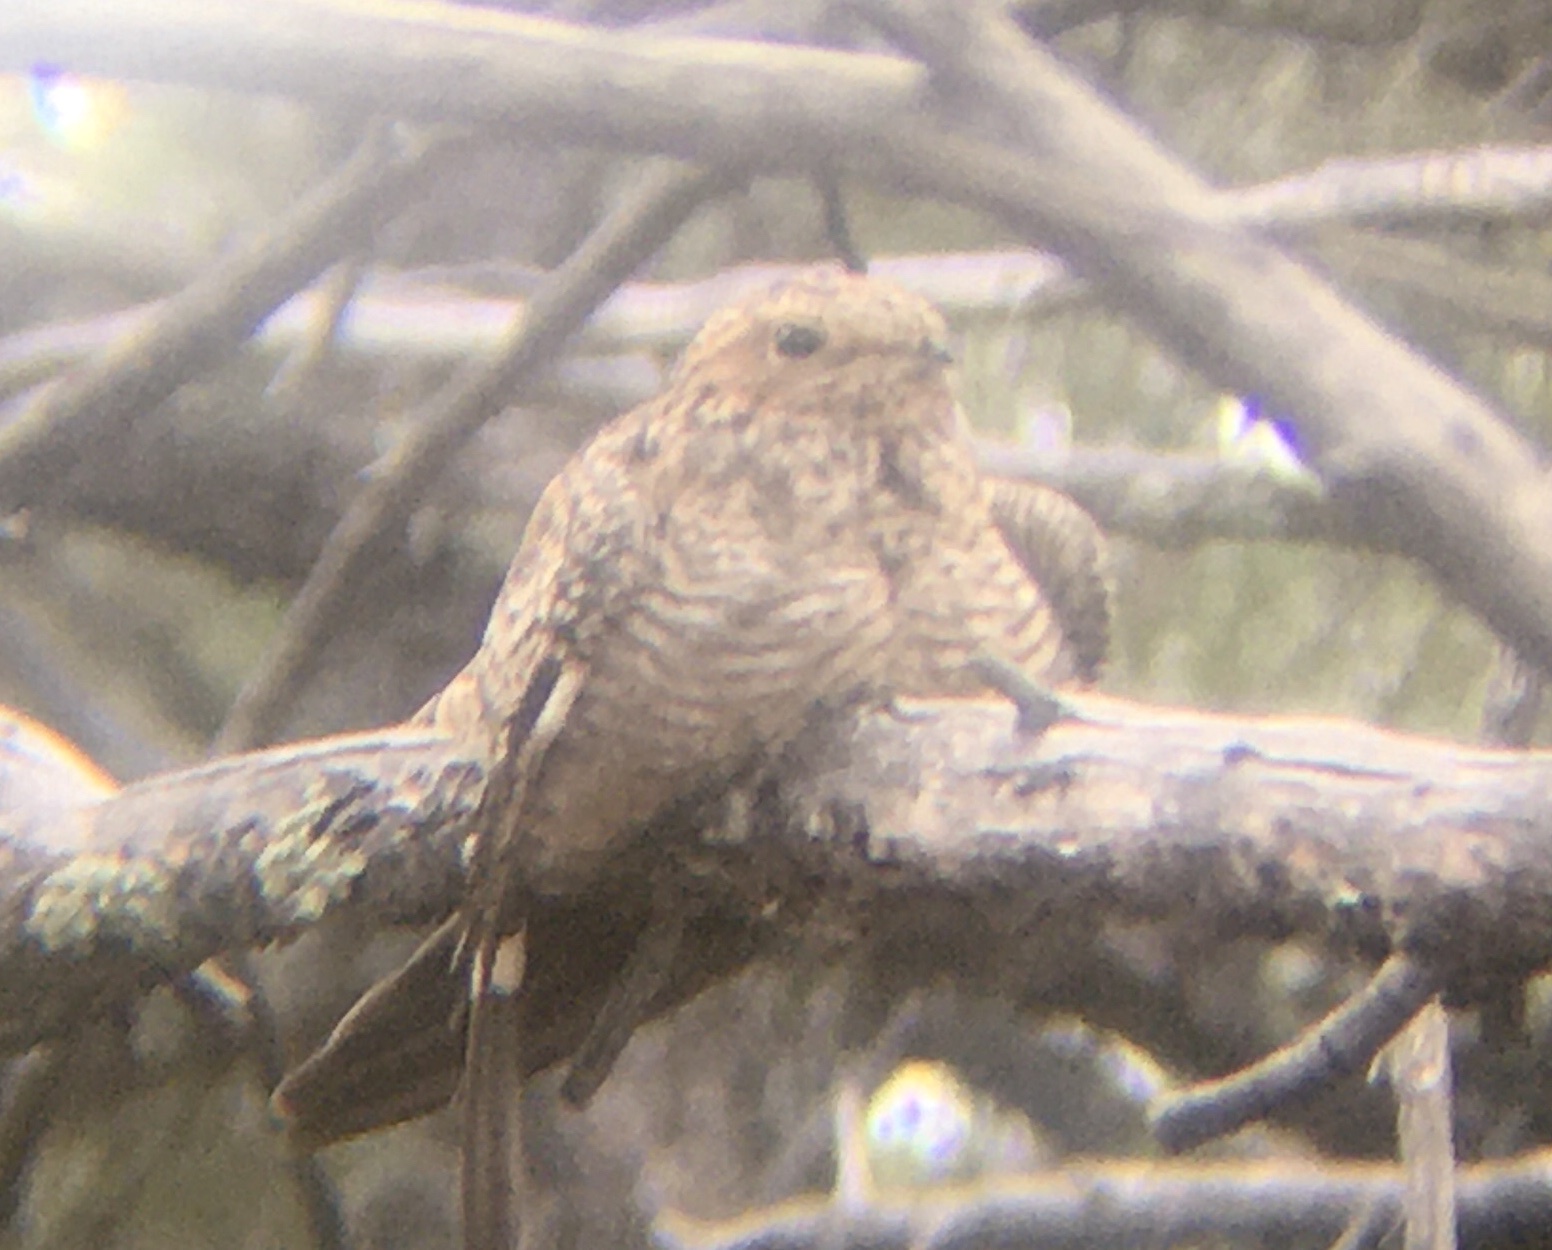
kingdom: Animalia
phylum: Chordata
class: Aves
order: Caprimulgiformes
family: Caprimulgidae
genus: Chordeiles
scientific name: Chordeiles minor
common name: Common nighthawk
